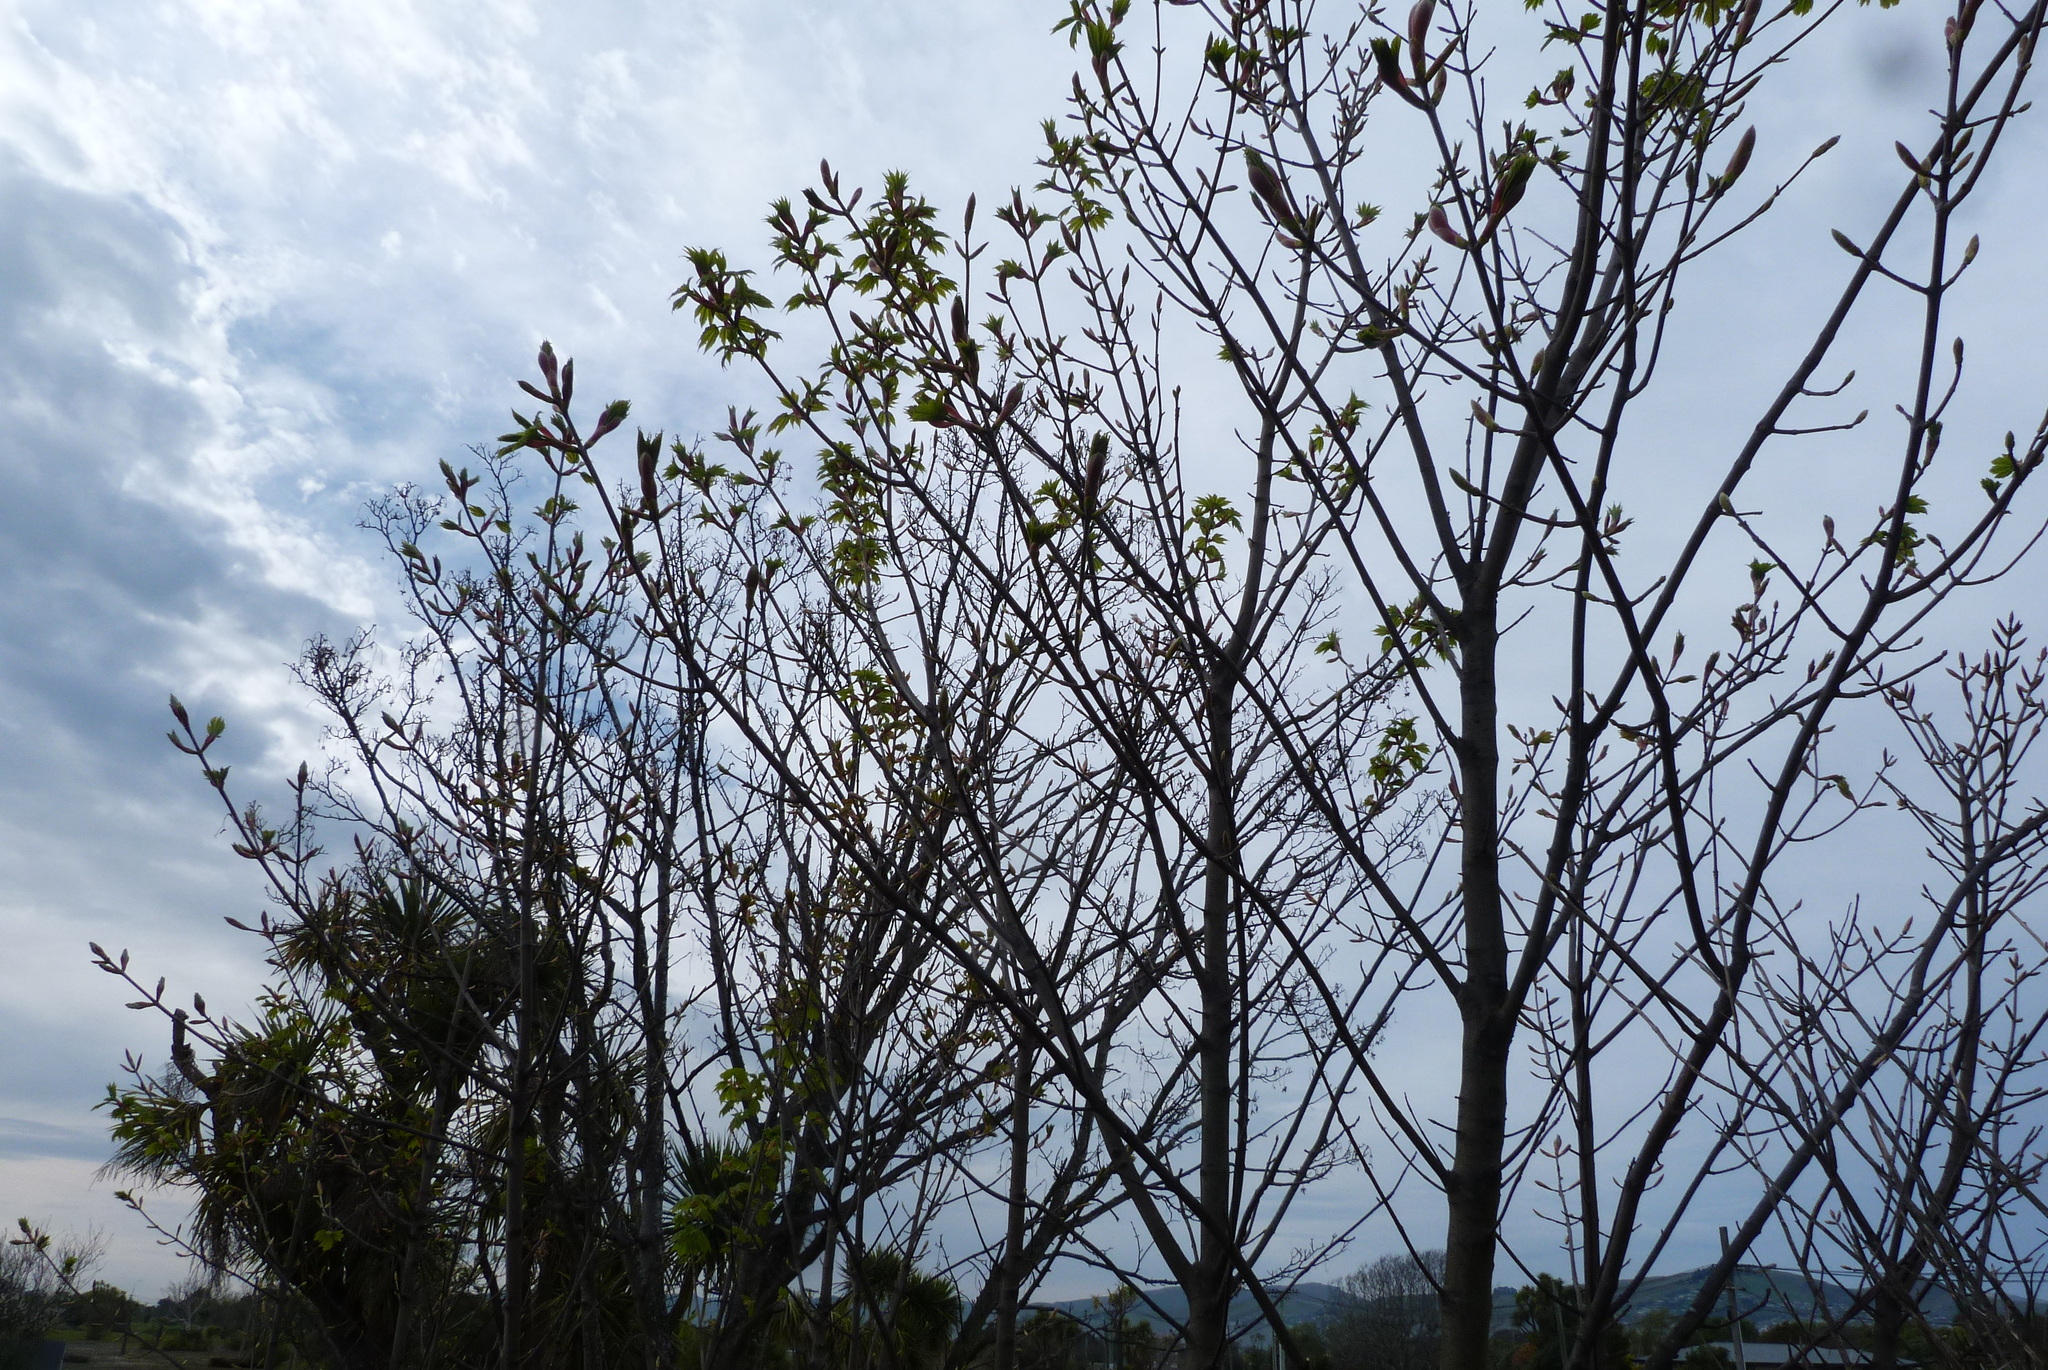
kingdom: Plantae
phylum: Tracheophyta
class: Magnoliopsida
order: Sapindales
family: Sapindaceae
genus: Acer
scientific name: Acer pseudoplatanus
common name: Sycamore
